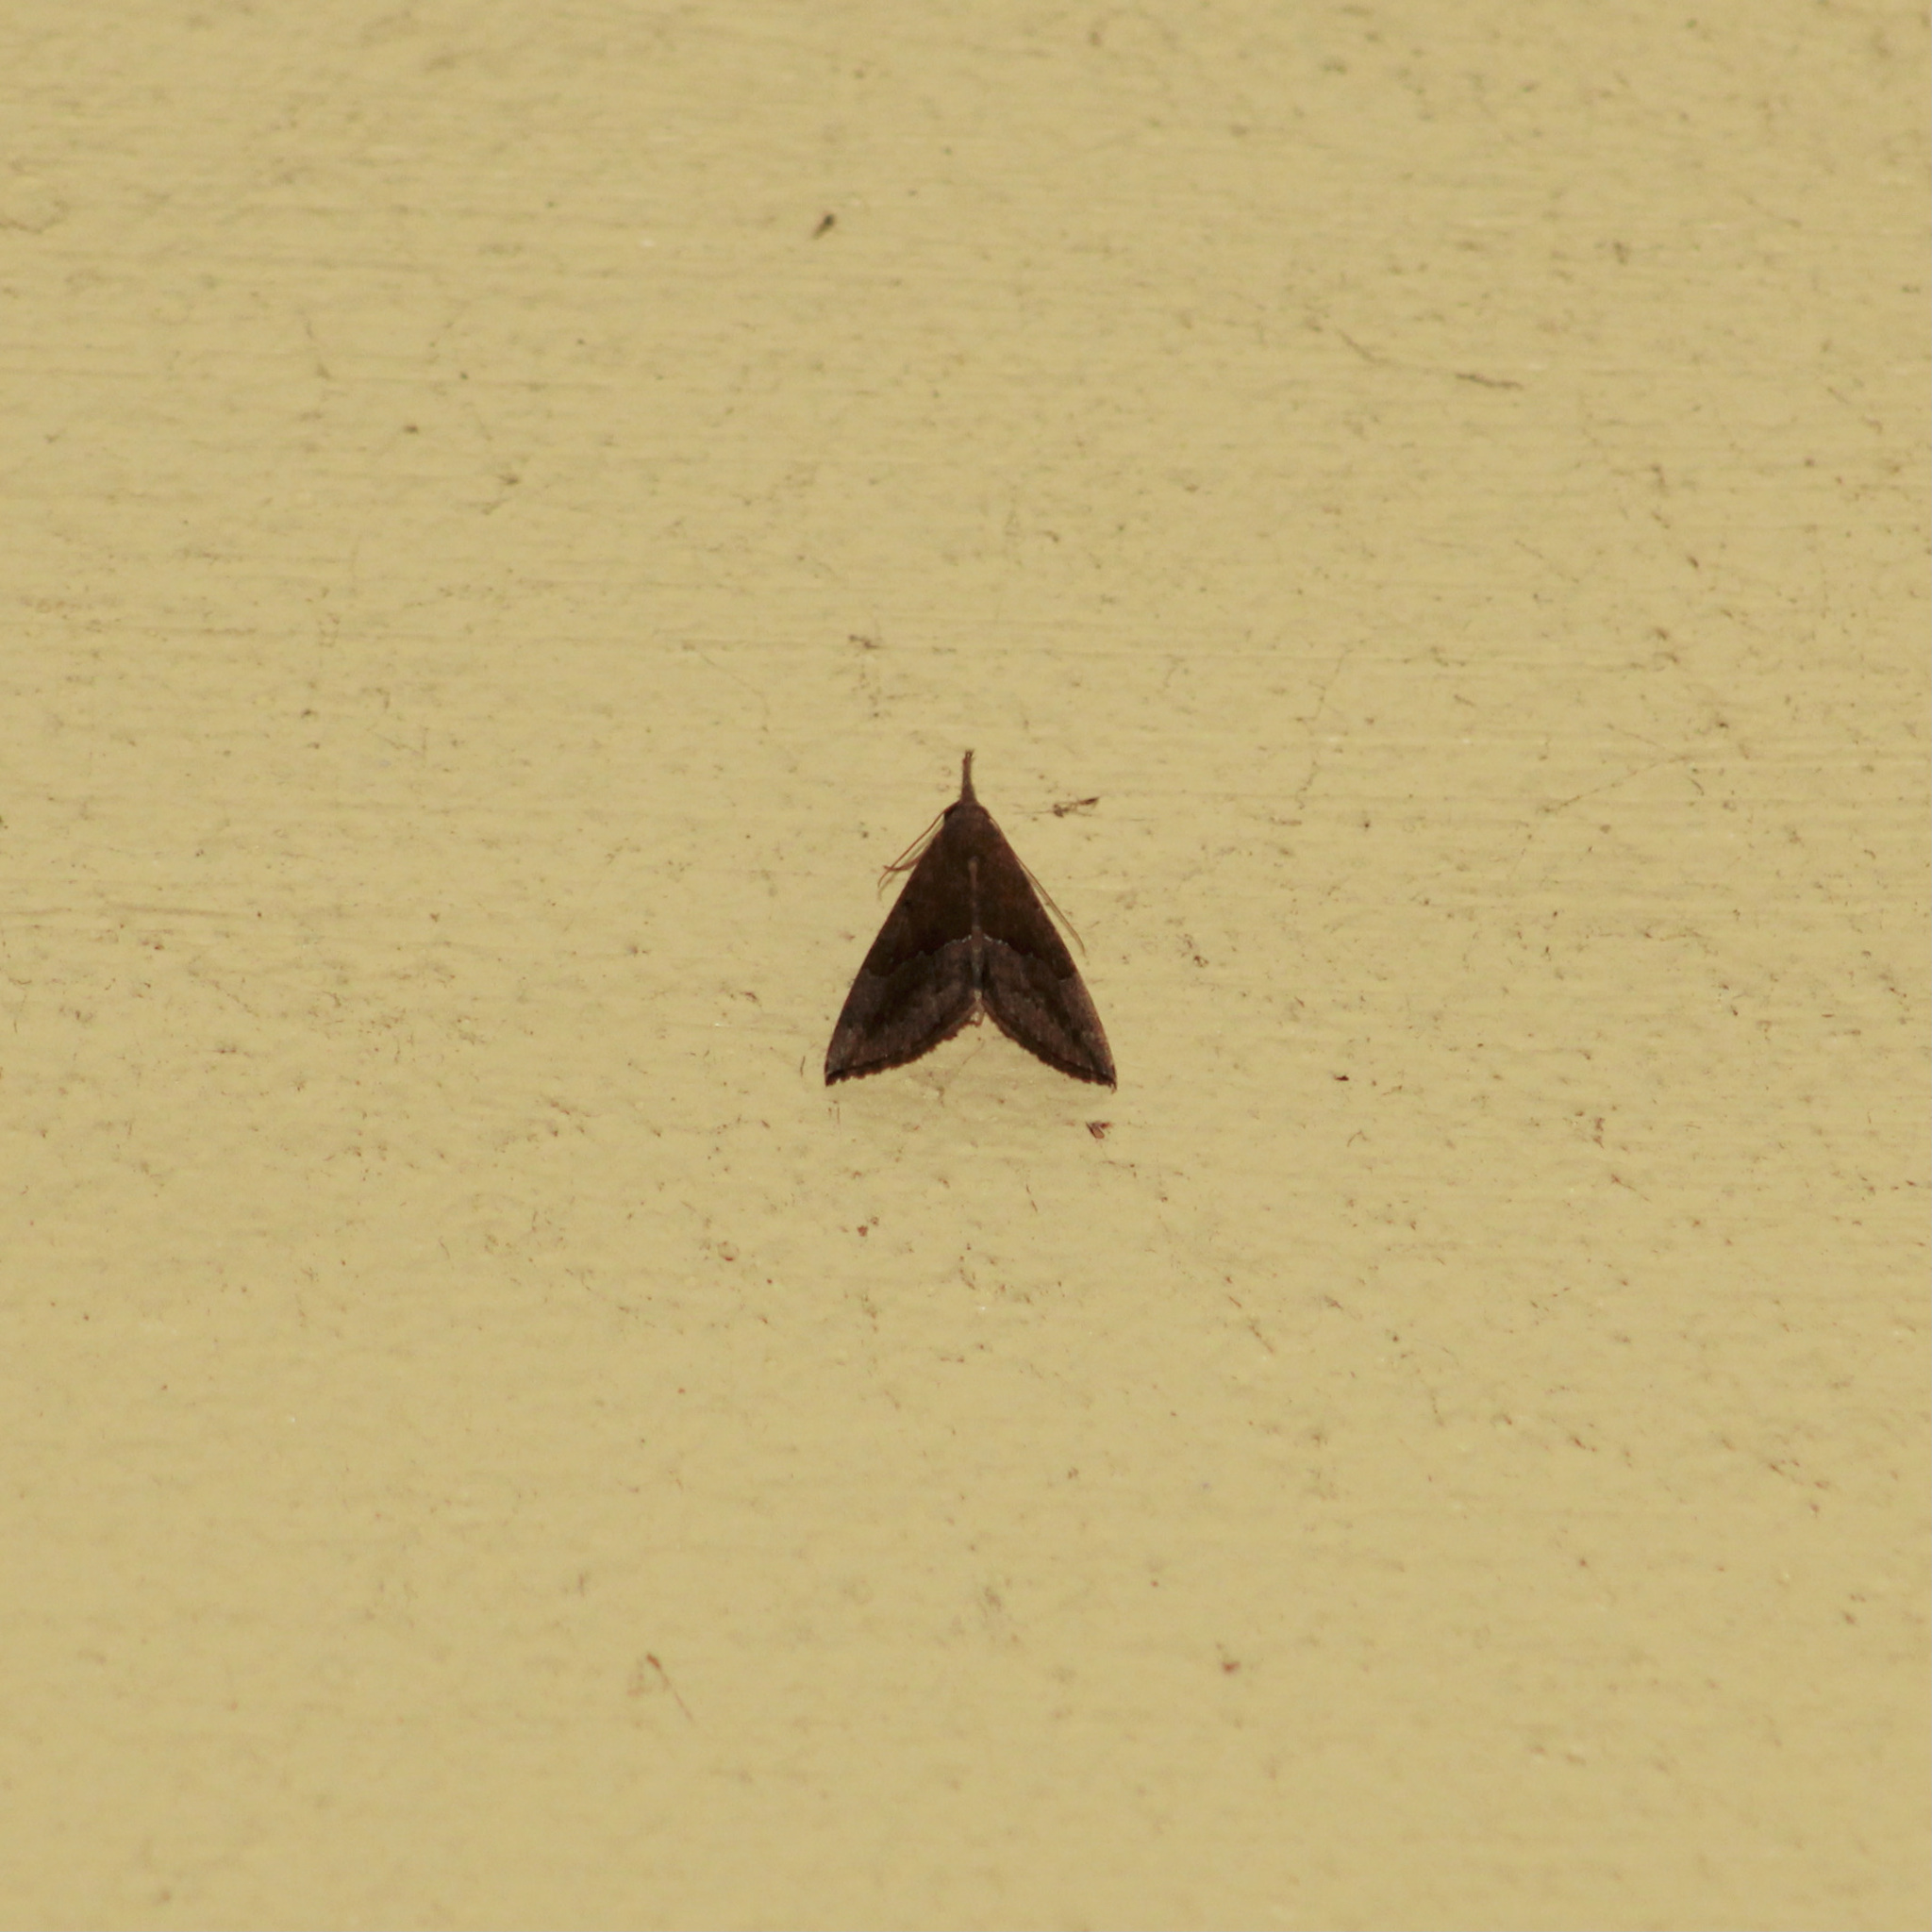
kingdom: Animalia
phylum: Arthropoda
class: Insecta
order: Lepidoptera
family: Erebidae
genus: Hypena
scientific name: Hypena porrectalis
